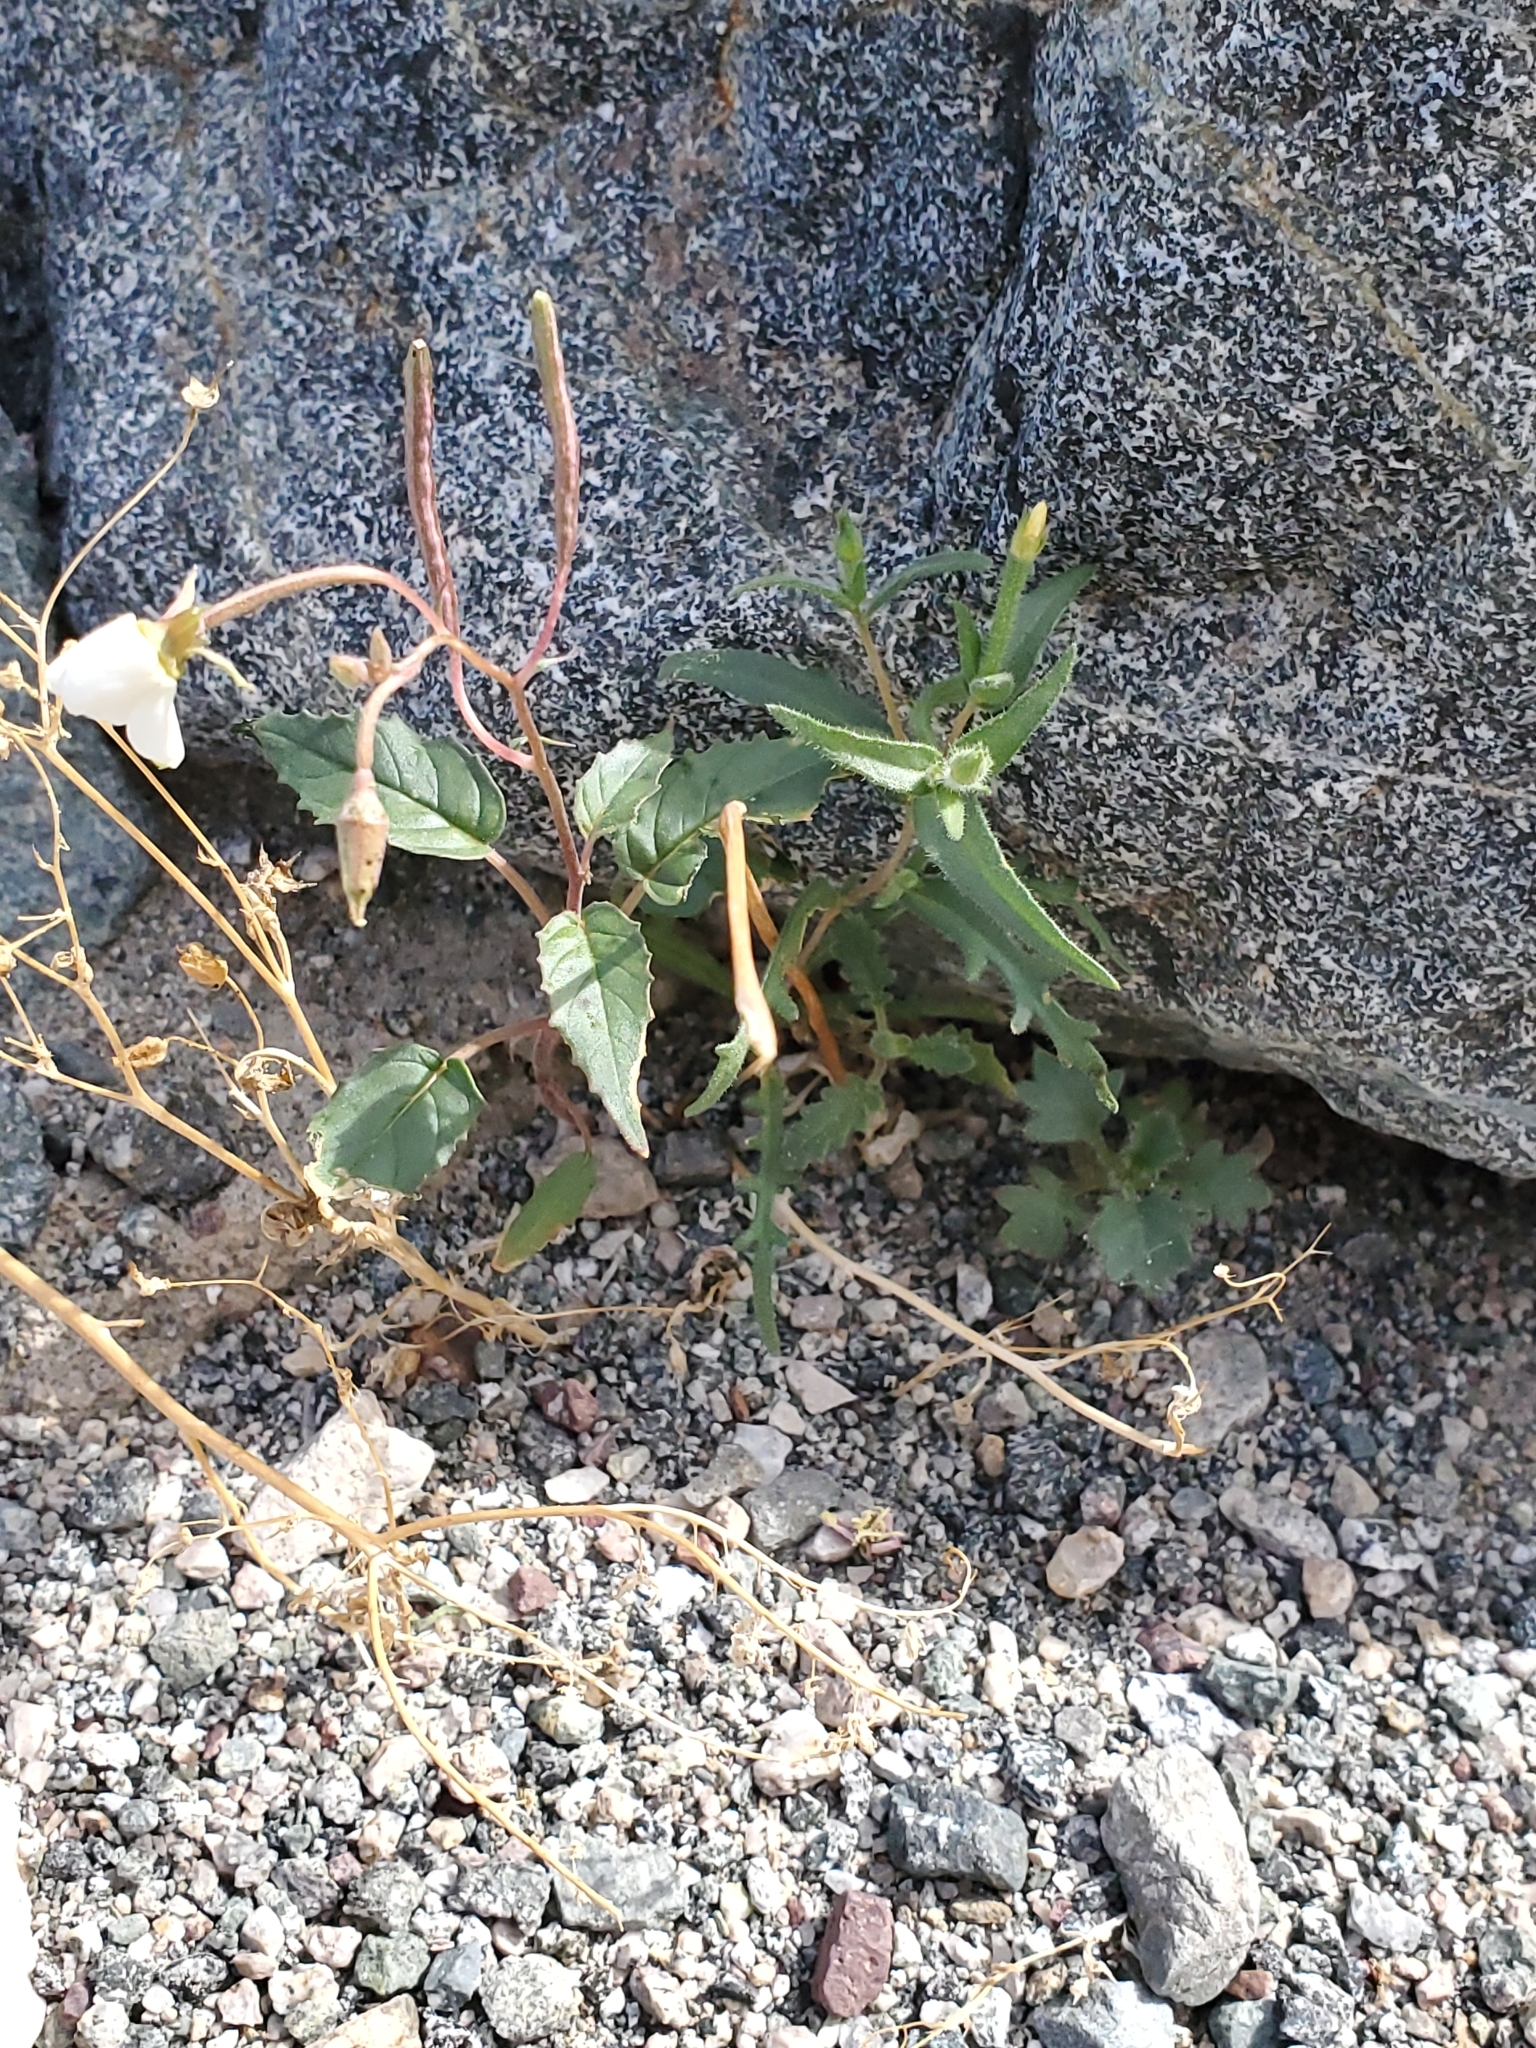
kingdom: Plantae
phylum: Tracheophyta
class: Magnoliopsida
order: Myrtales
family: Onagraceae
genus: Chylismia
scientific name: Chylismia claviformis
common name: Browneyes
